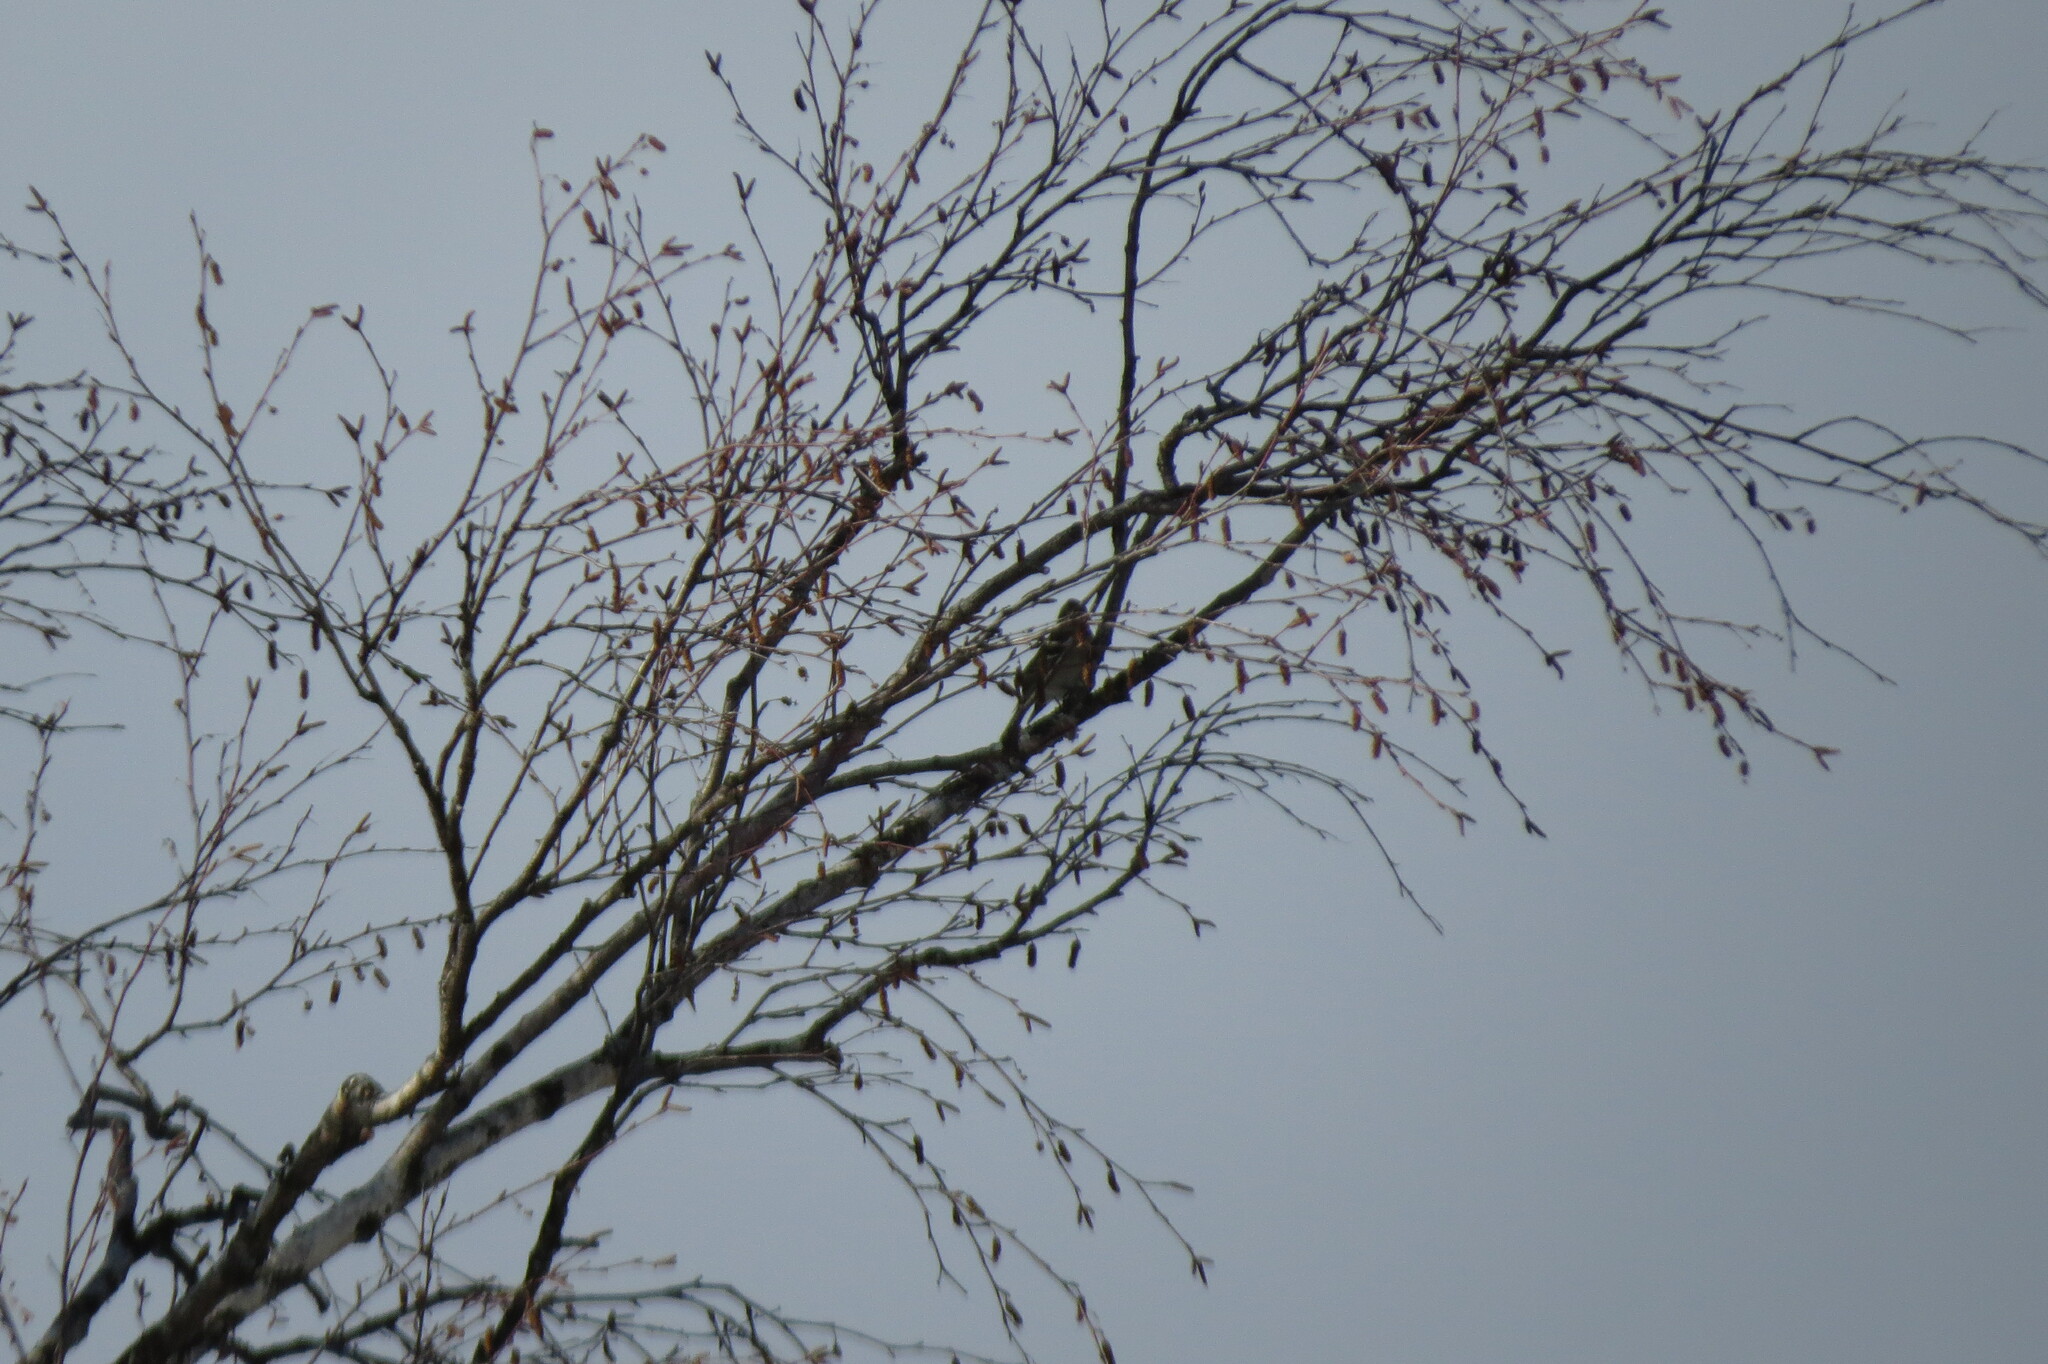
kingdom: Animalia
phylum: Chordata
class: Aves
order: Passeriformes
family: Fringillidae
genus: Acanthis
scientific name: Acanthis flammea
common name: Common redpoll
